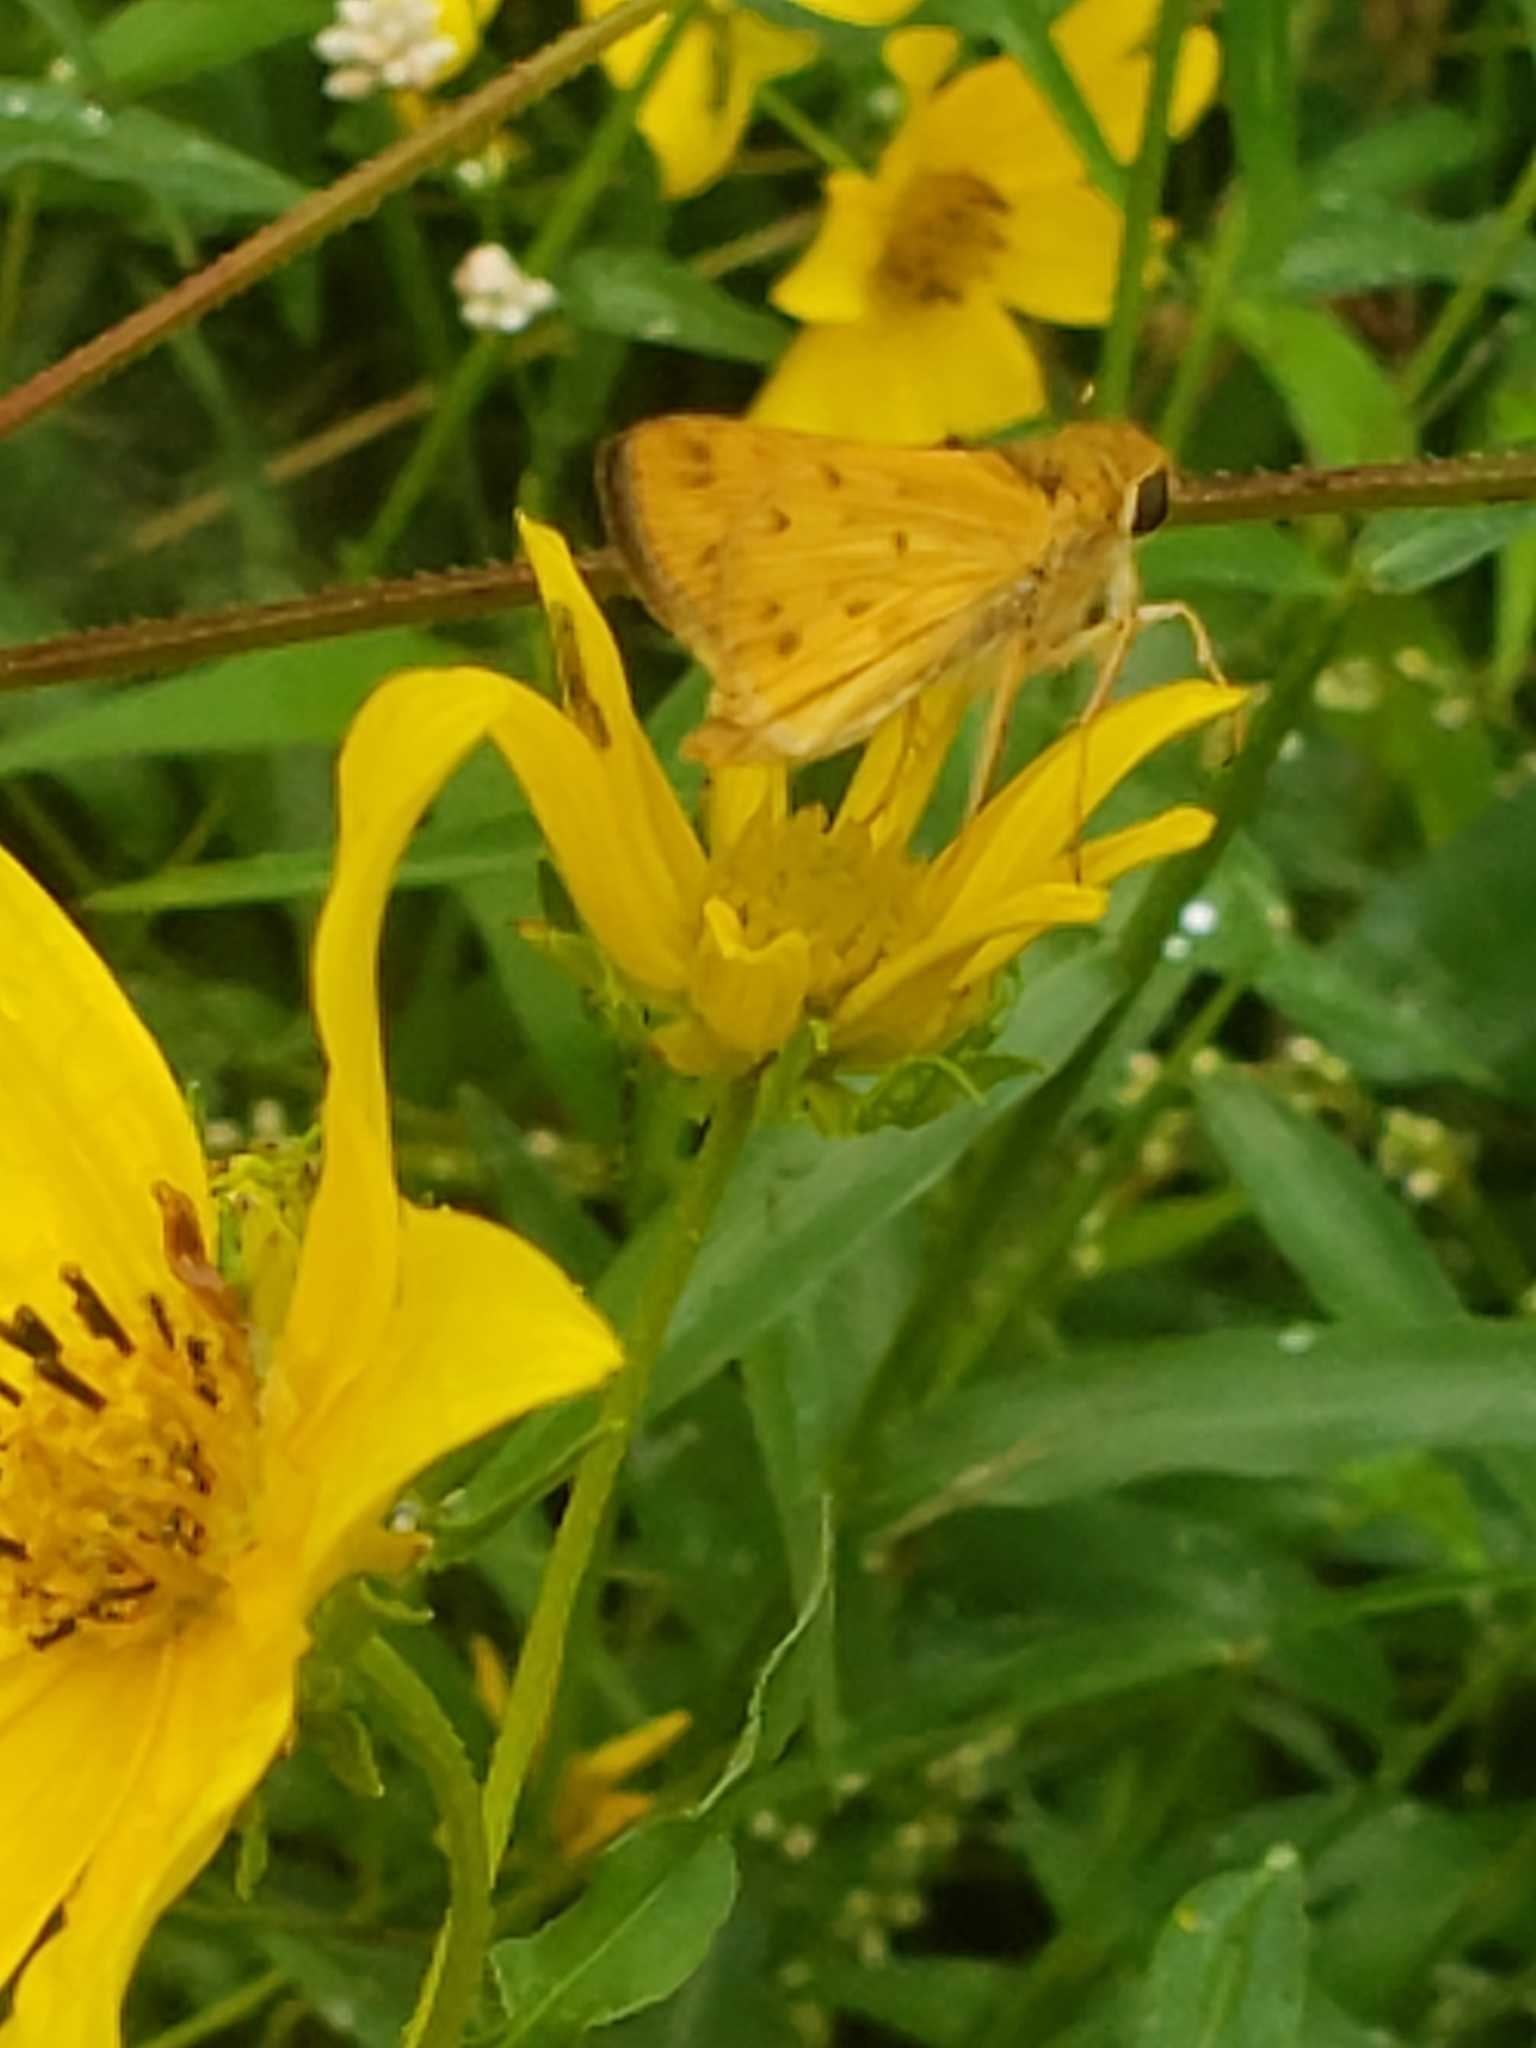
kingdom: Animalia
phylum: Arthropoda
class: Insecta
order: Lepidoptera
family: Hesperiidae
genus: Hylephila
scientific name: Hylephila phyleus
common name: Fiery skipper
